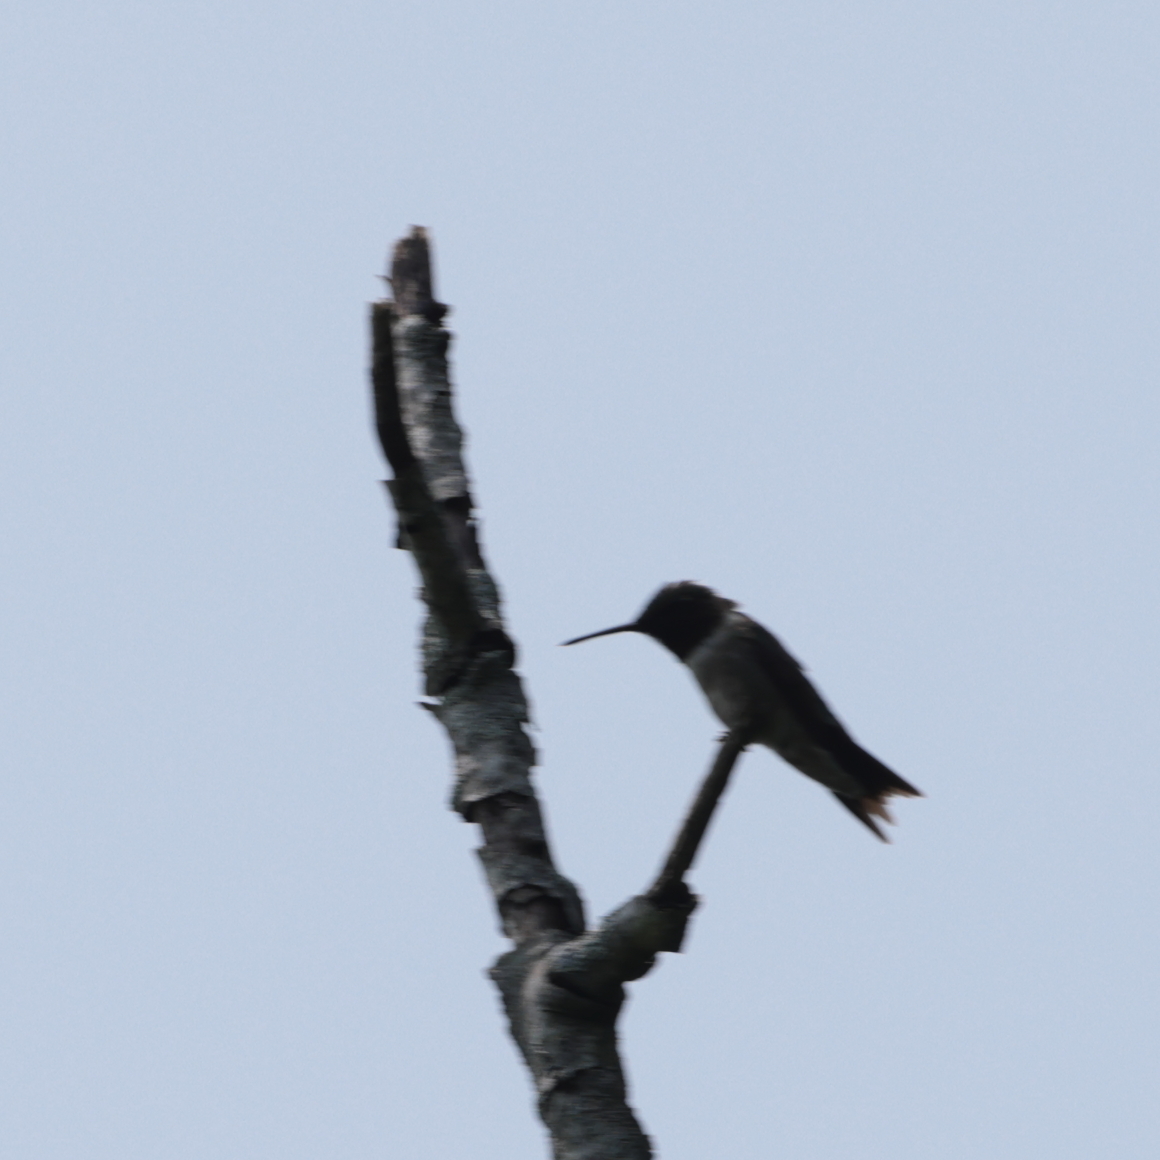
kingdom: Animalia
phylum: Chordata
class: Aves
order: Apodiformes
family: Trochilidae
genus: Archilochus
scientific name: Archilochus colubris
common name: Ruby-throated hummingbird
